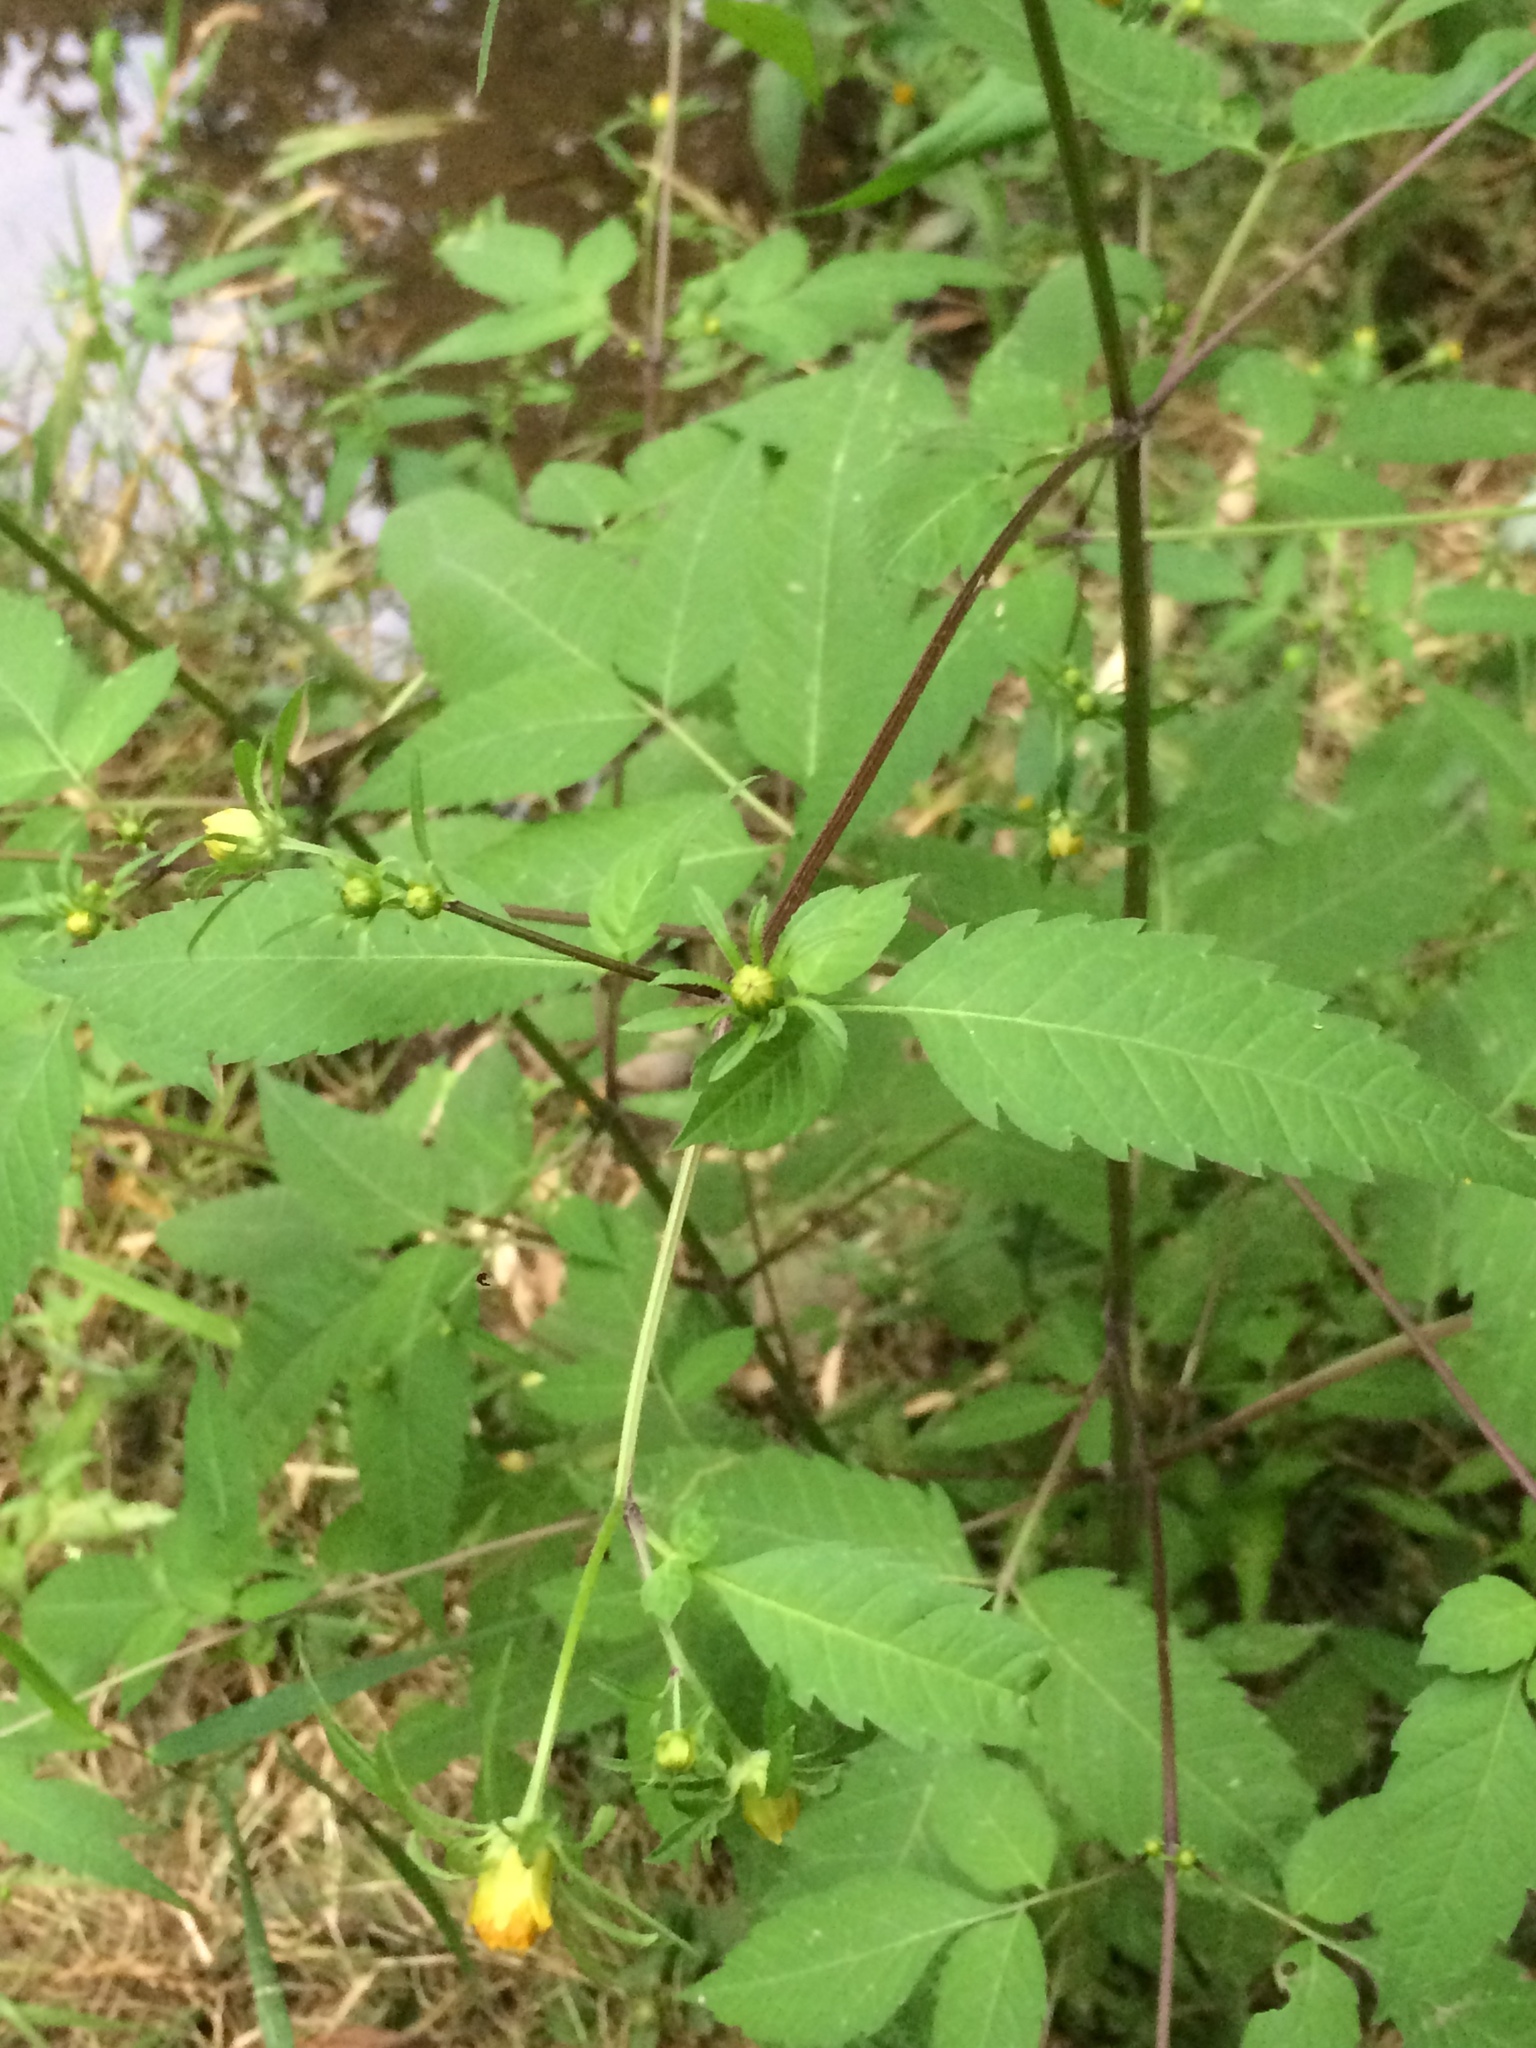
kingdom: Plantae
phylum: Tracheophyta
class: Magnoliopsida
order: Asterales
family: Asteraceae
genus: Bidens
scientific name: Bidens frondosa
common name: Beggarticks
